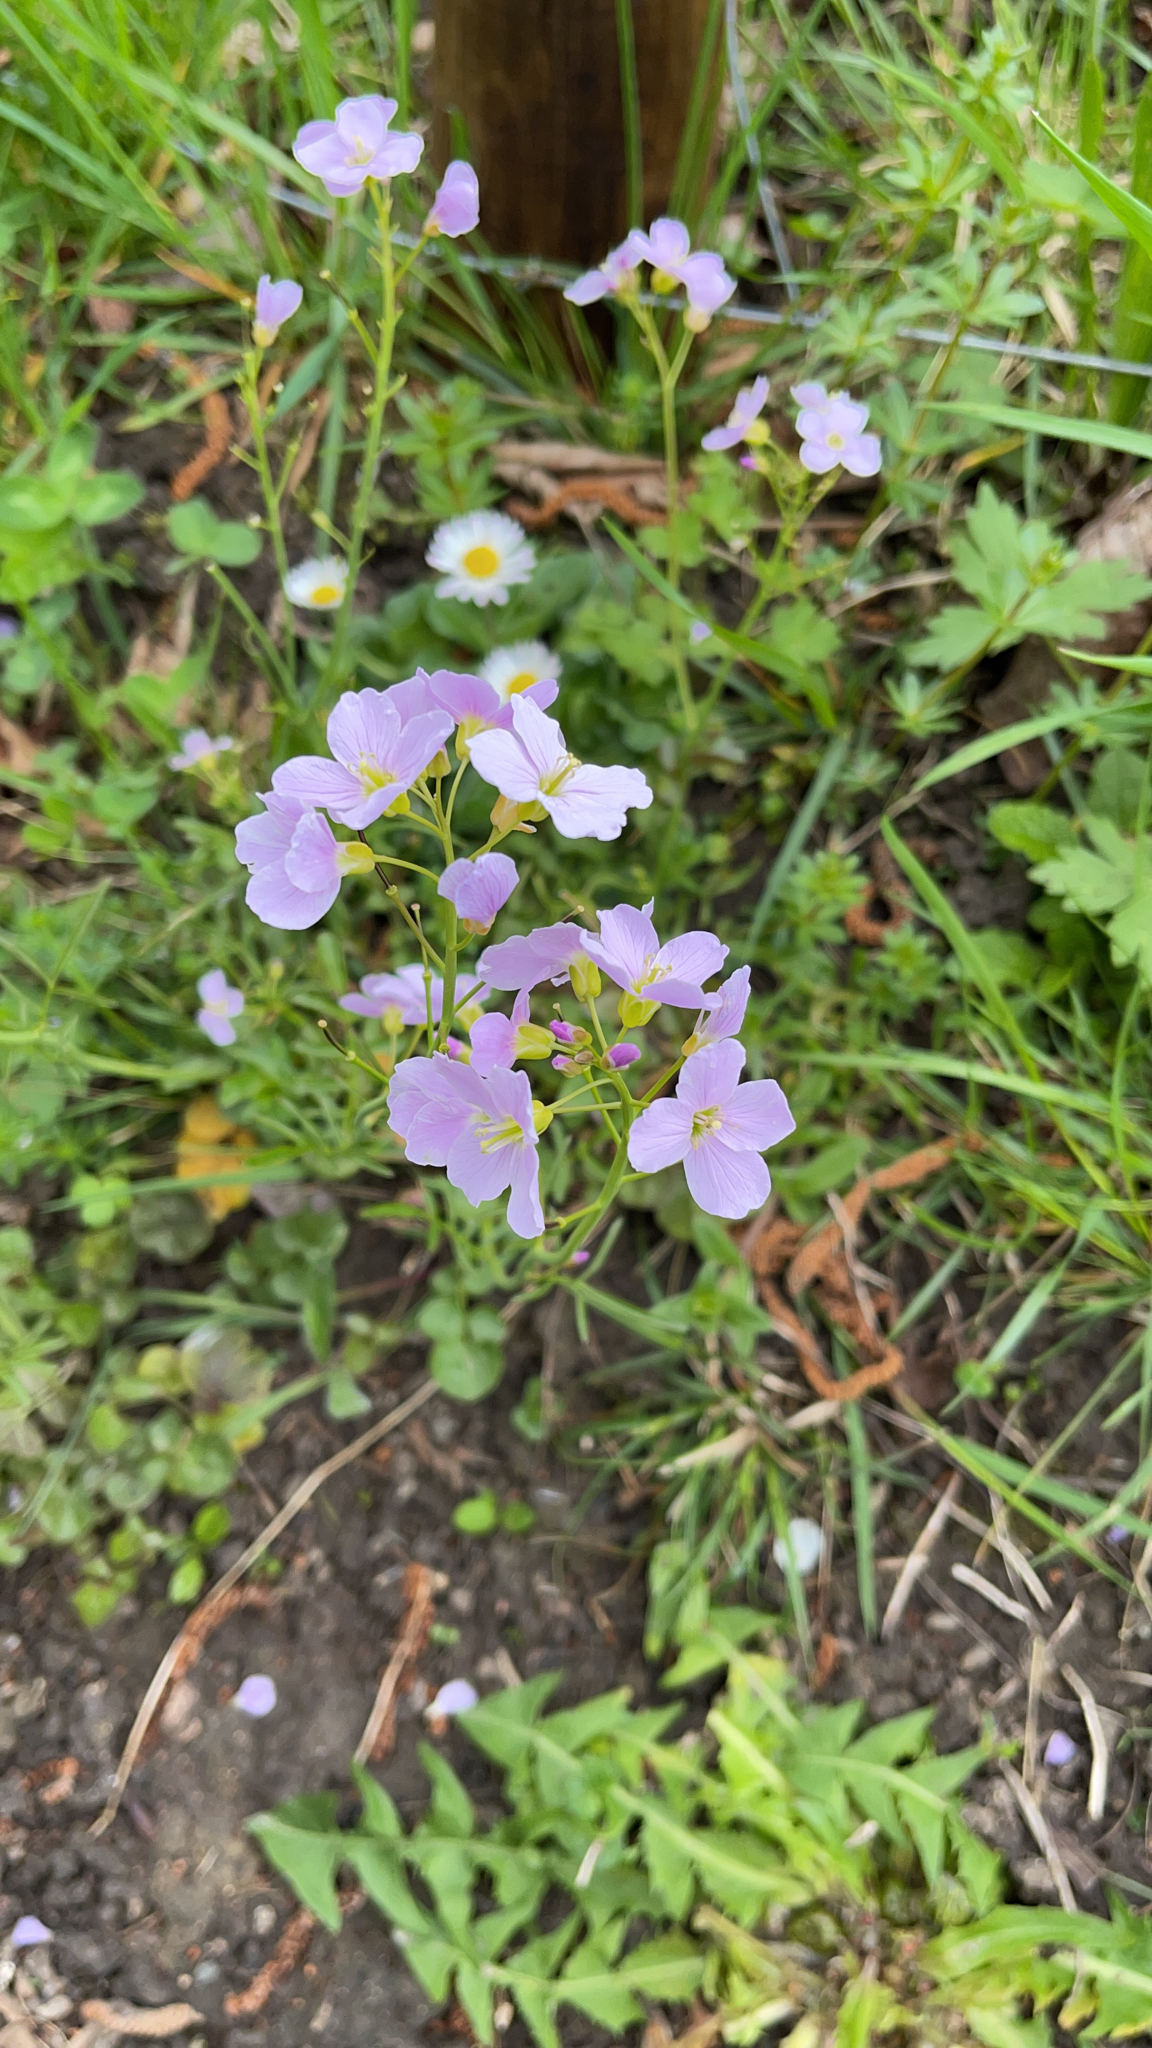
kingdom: Plantae
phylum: Tracheophyta
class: Magnoliopsida
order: Brassicales
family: Brassicaceae
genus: Cardamine
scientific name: Cardamine pratensis
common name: Cuckoo flower
